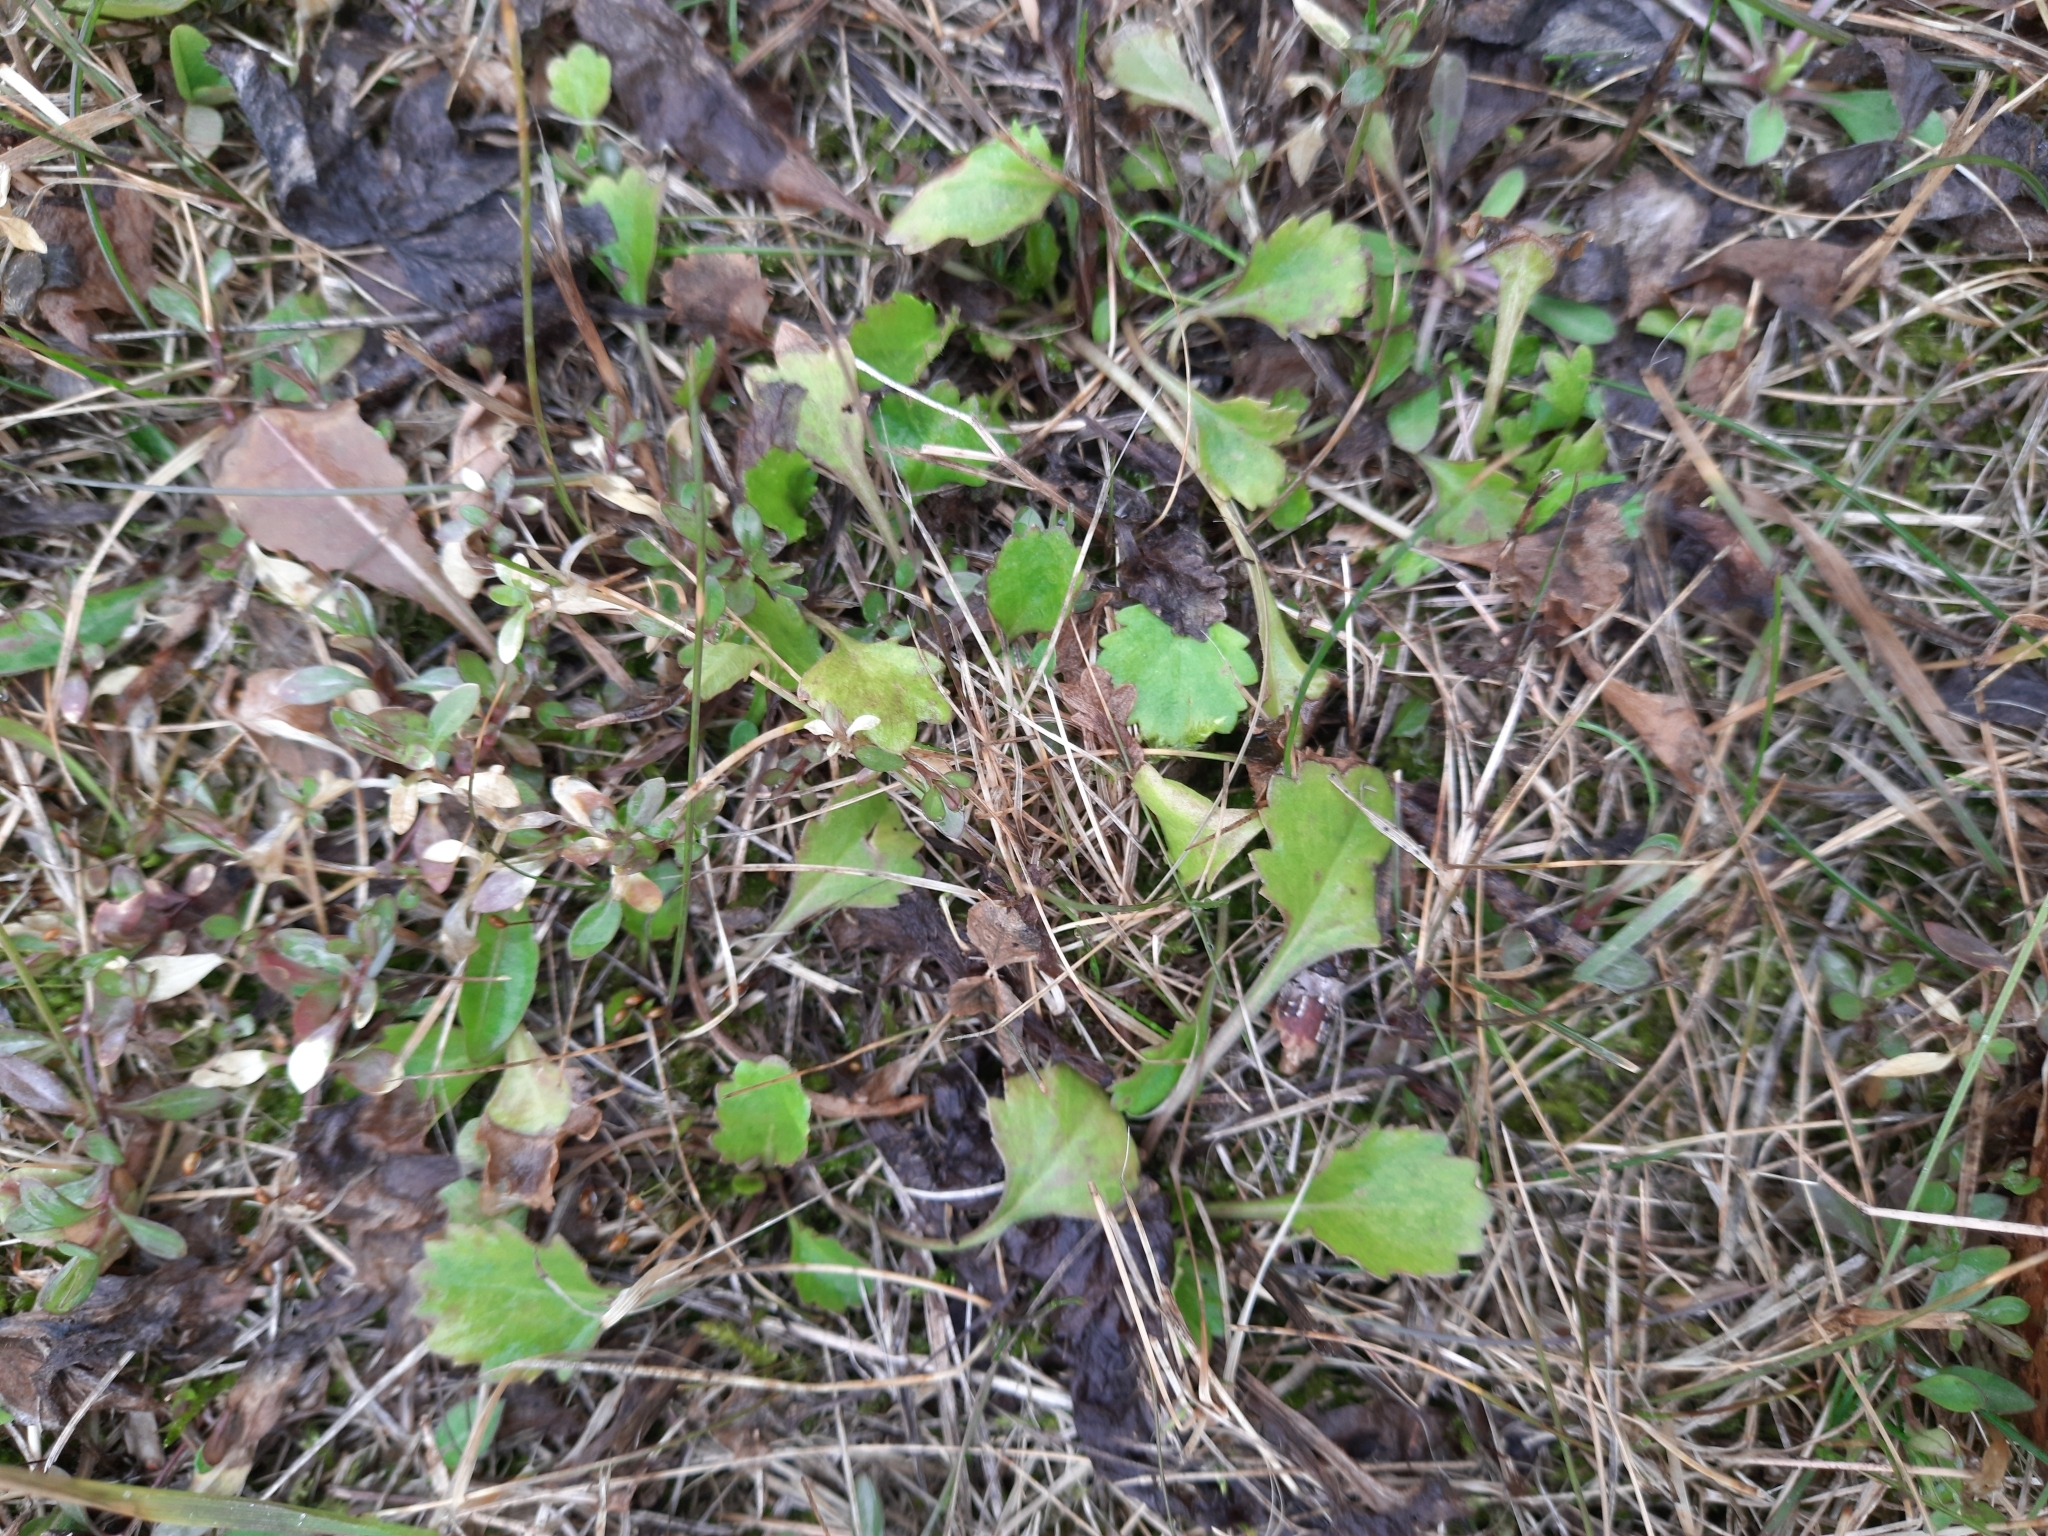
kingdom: Plantae
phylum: Tracheophyta
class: Magnoliopsida
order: Asterales
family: Asteraceae
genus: Leucanthemum
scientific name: Leucanthemum ircutianum
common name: Daisy
